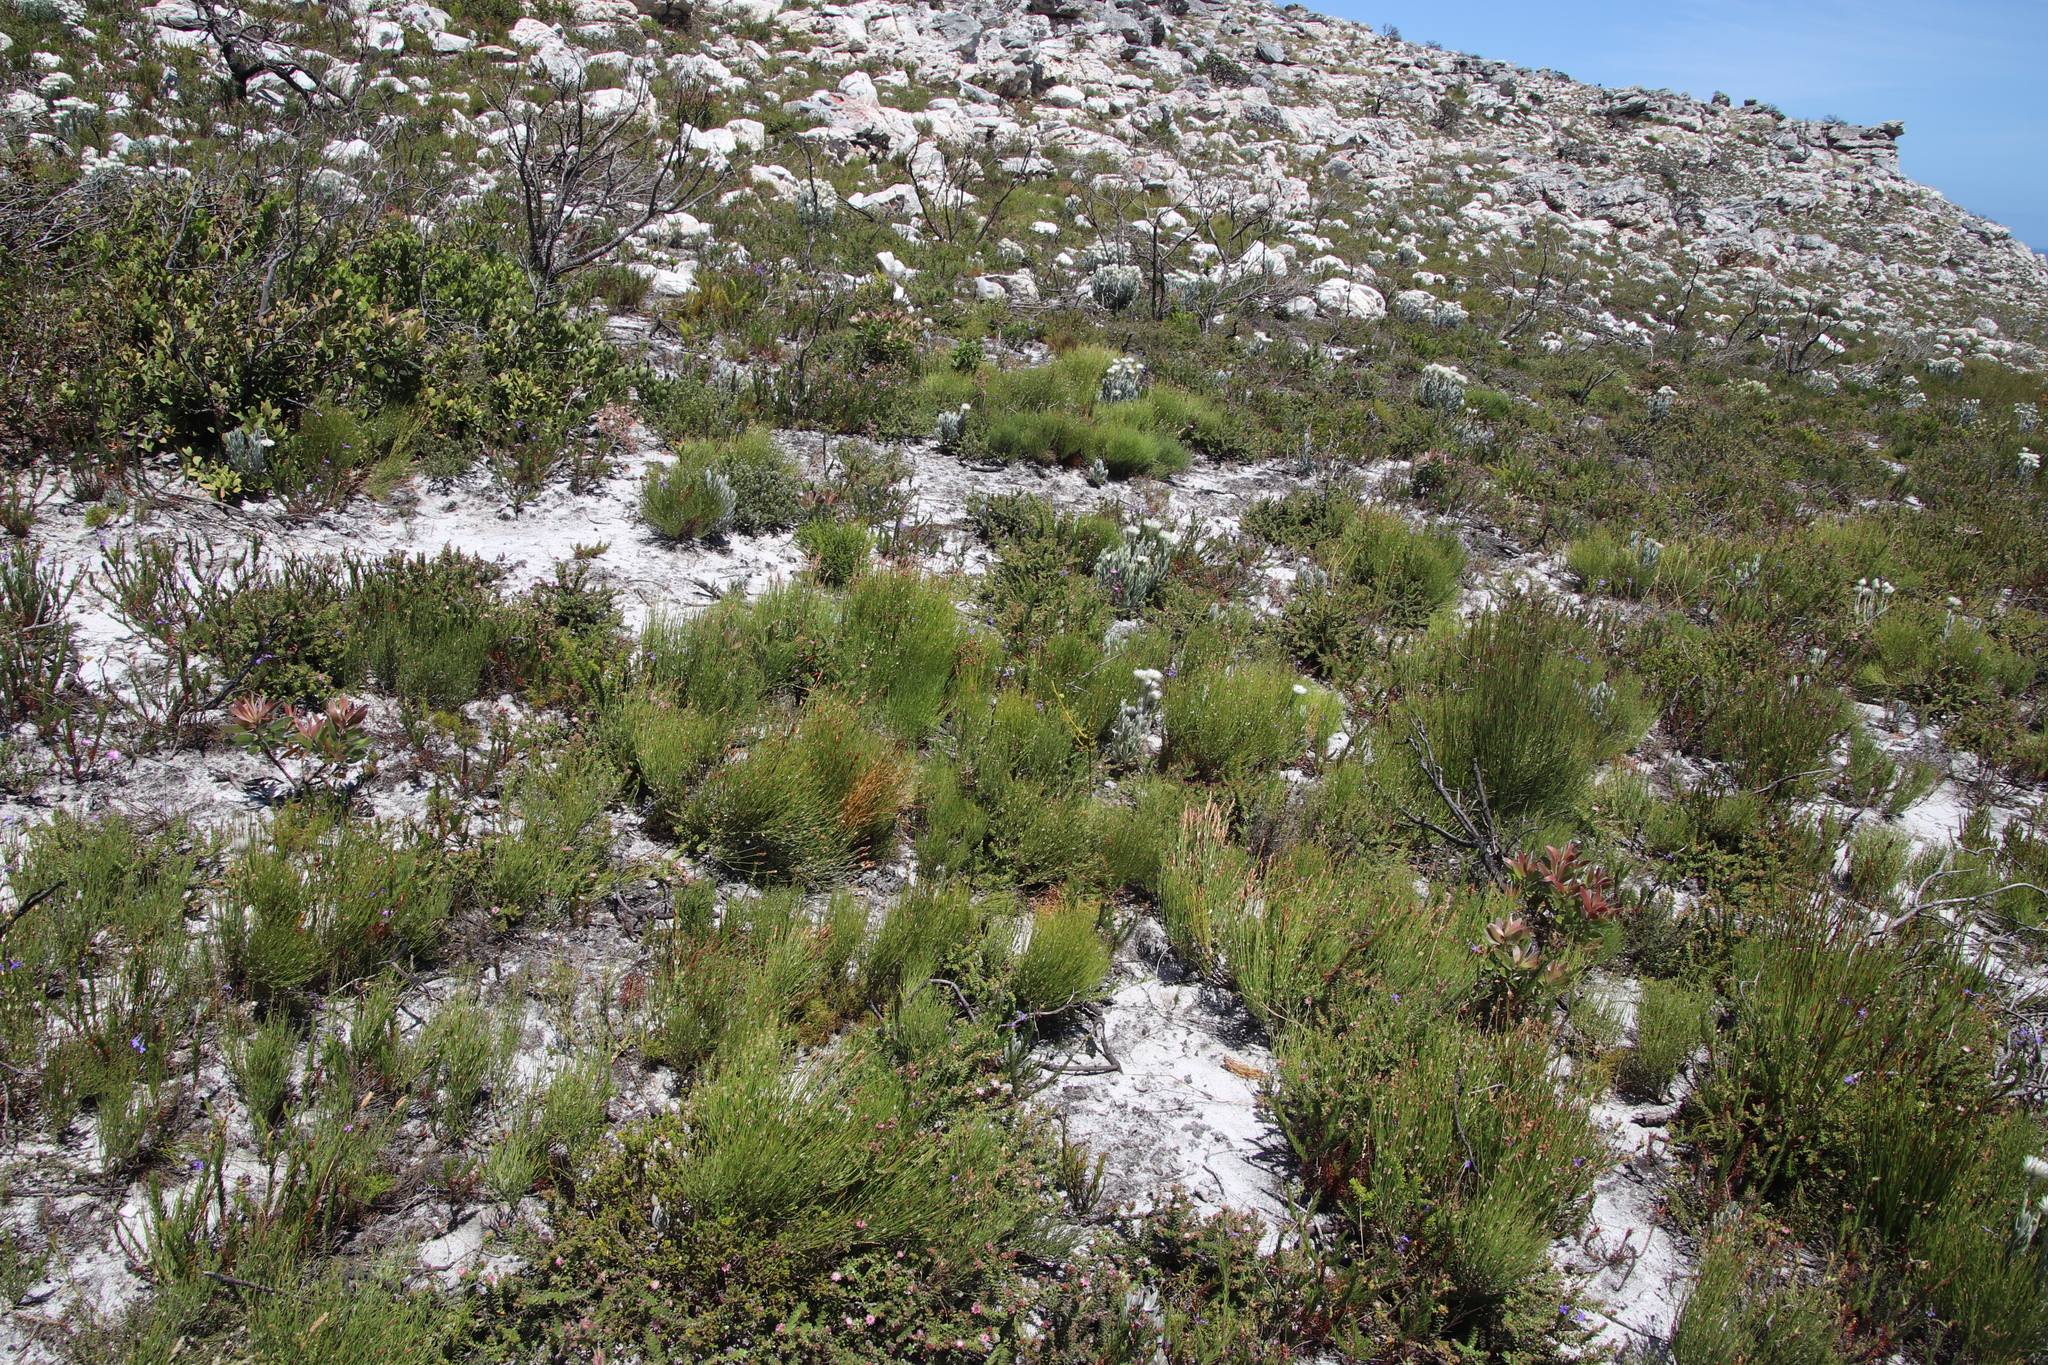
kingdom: Plantae
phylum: Tracheophyta
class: Liliopsida
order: Poales
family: Restionaceae
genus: Elegia
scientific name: Elegia stipularis
